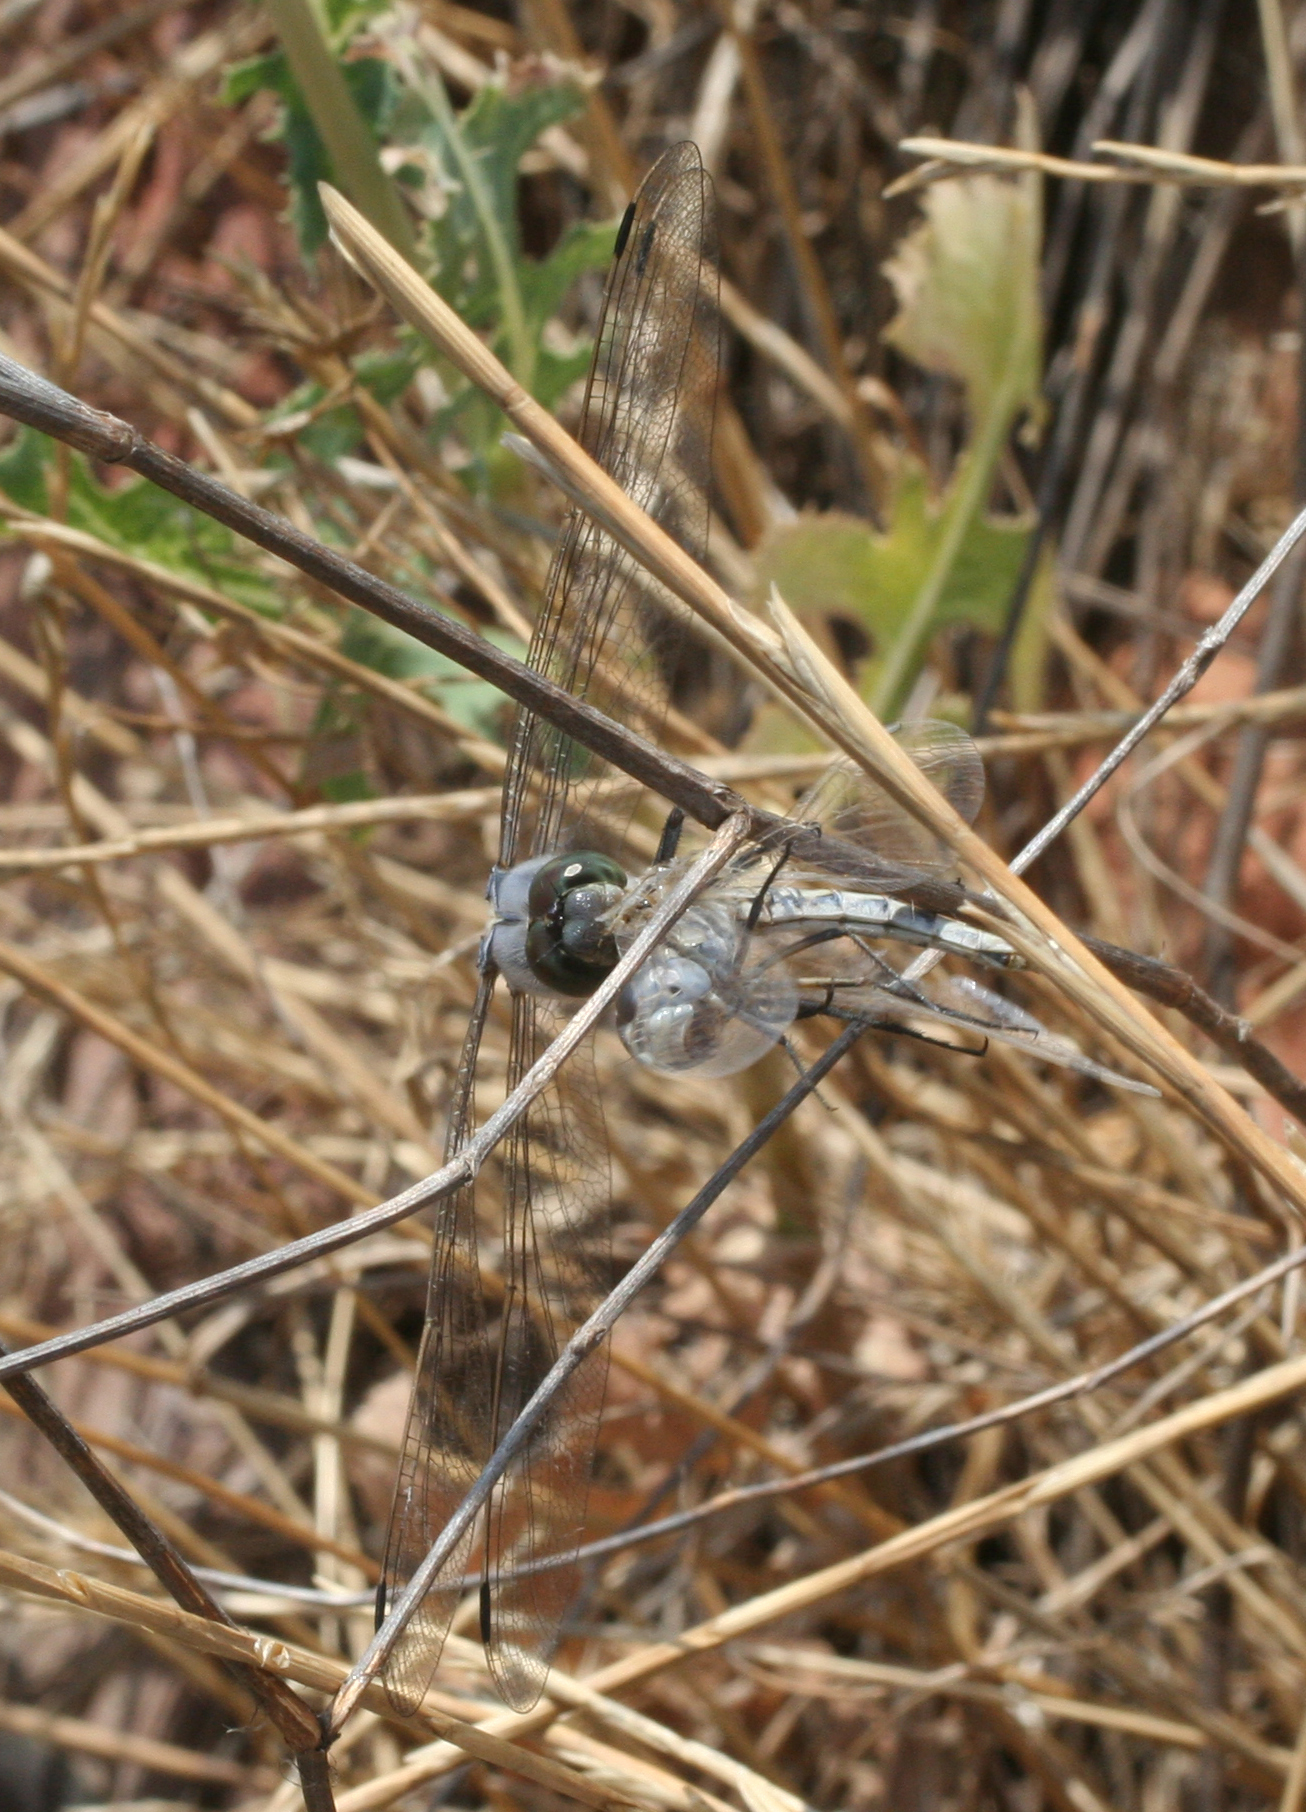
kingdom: Animalia
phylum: Arthropoda
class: Insecta
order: Odonata
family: Libellulidae
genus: Selysiothemis
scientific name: Selysiothemis nigra
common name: Black pennant
